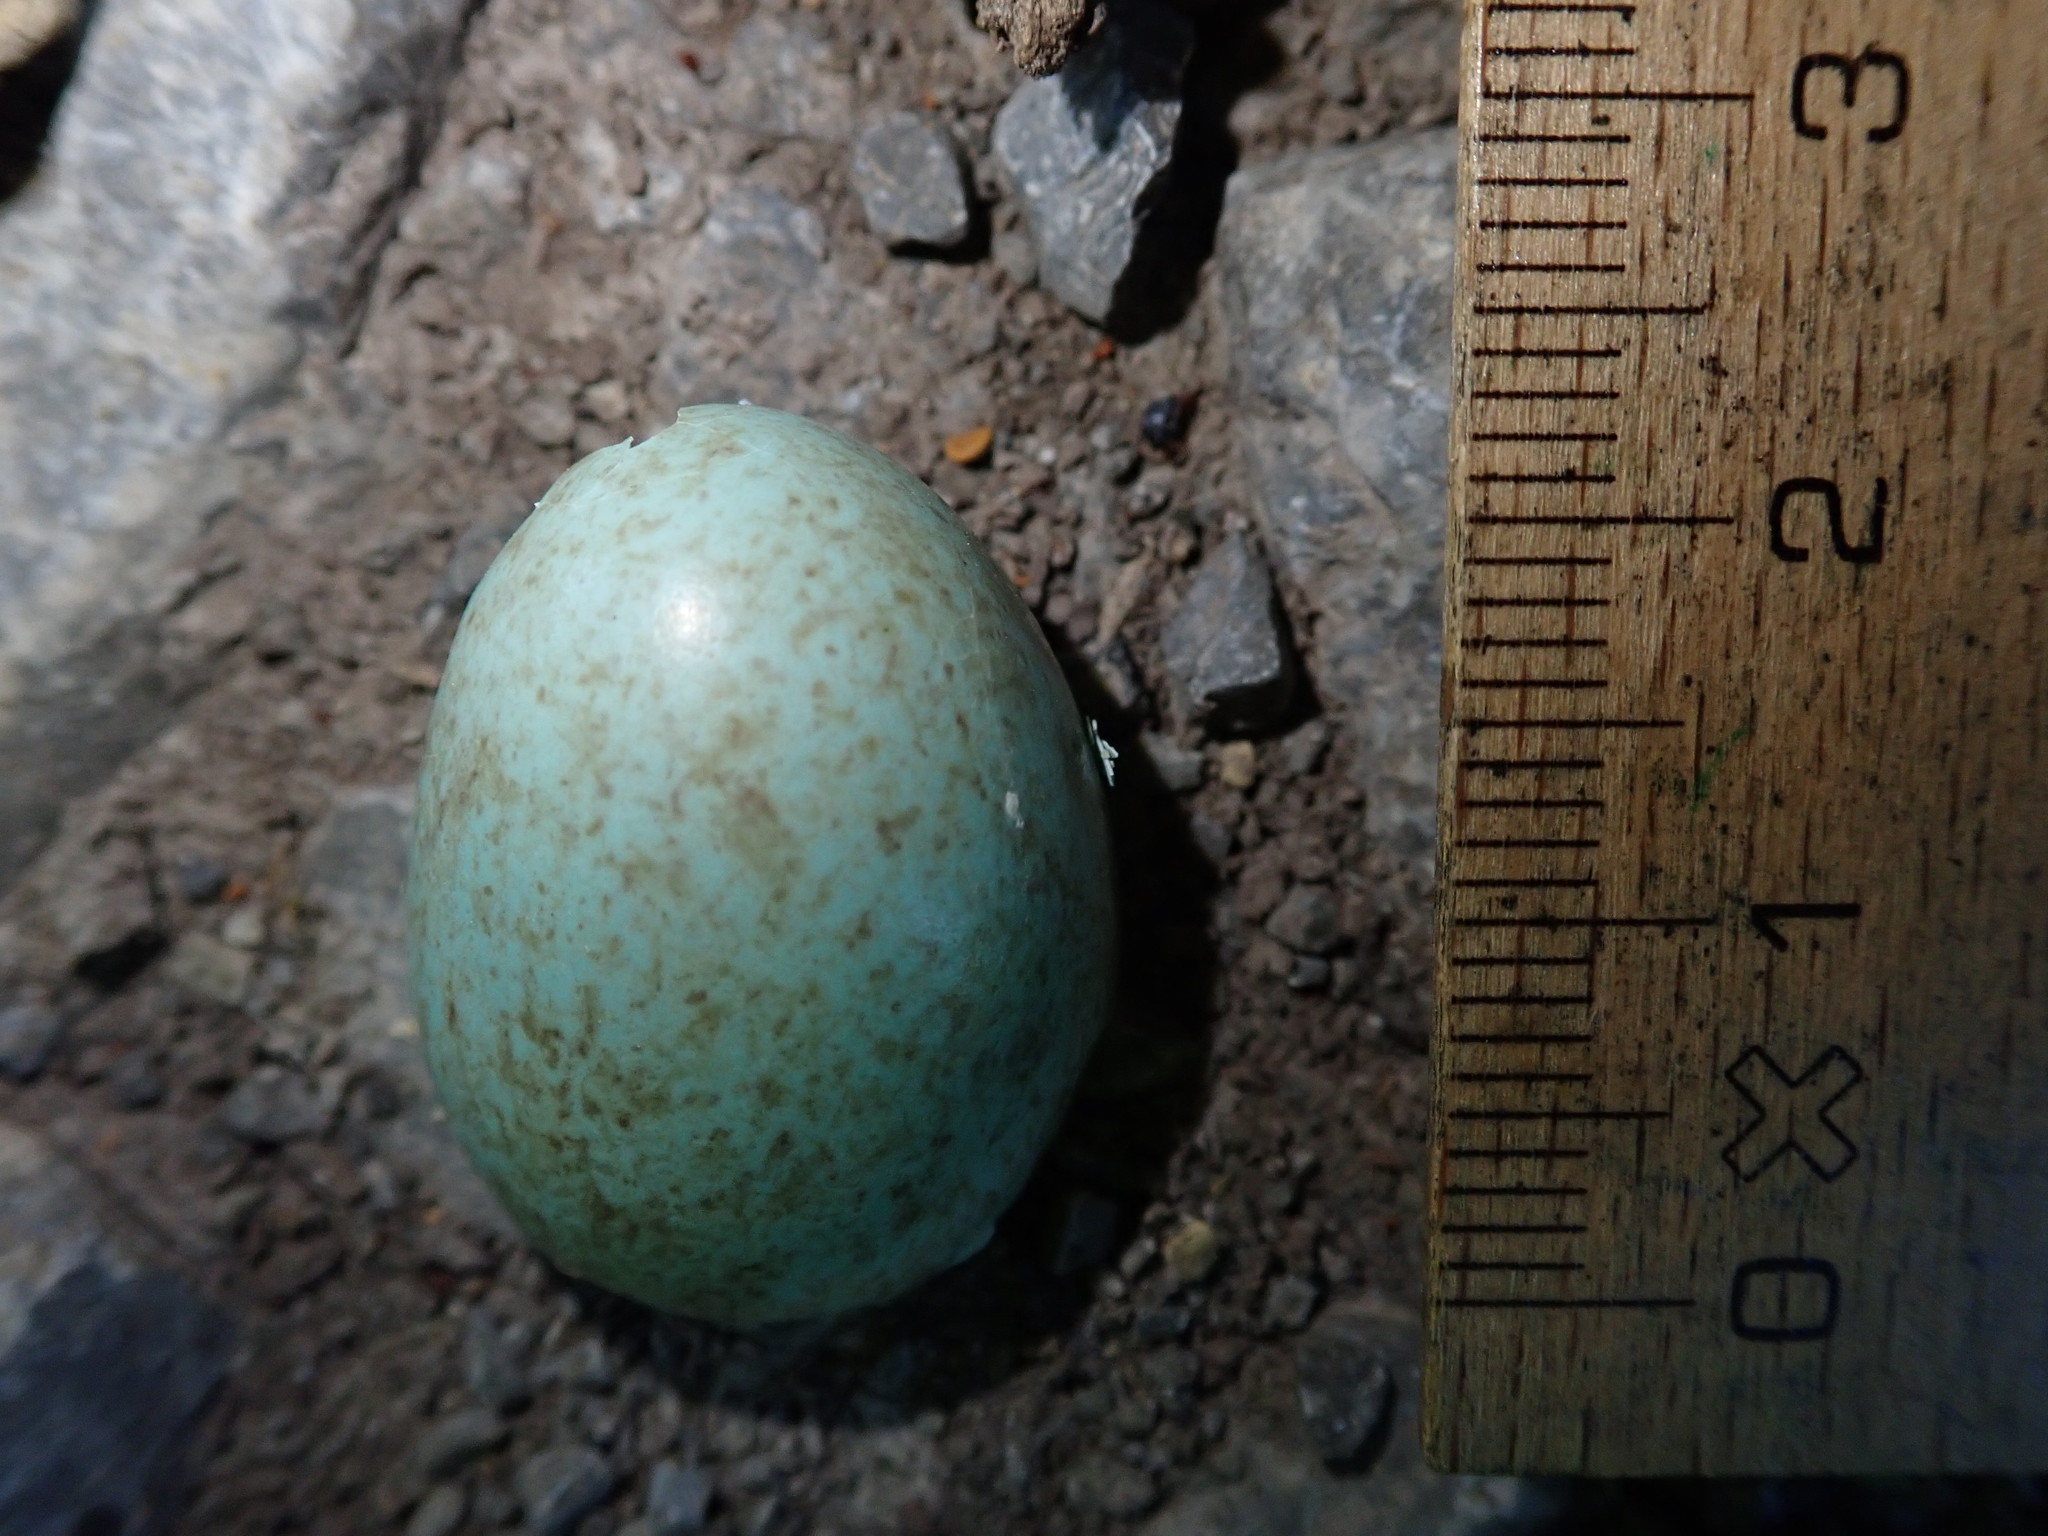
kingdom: Animalia
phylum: Chordata
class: Aves
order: Passeriformes
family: Turdidae
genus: Turdus
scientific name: Turdus merula
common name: Common blackbird
